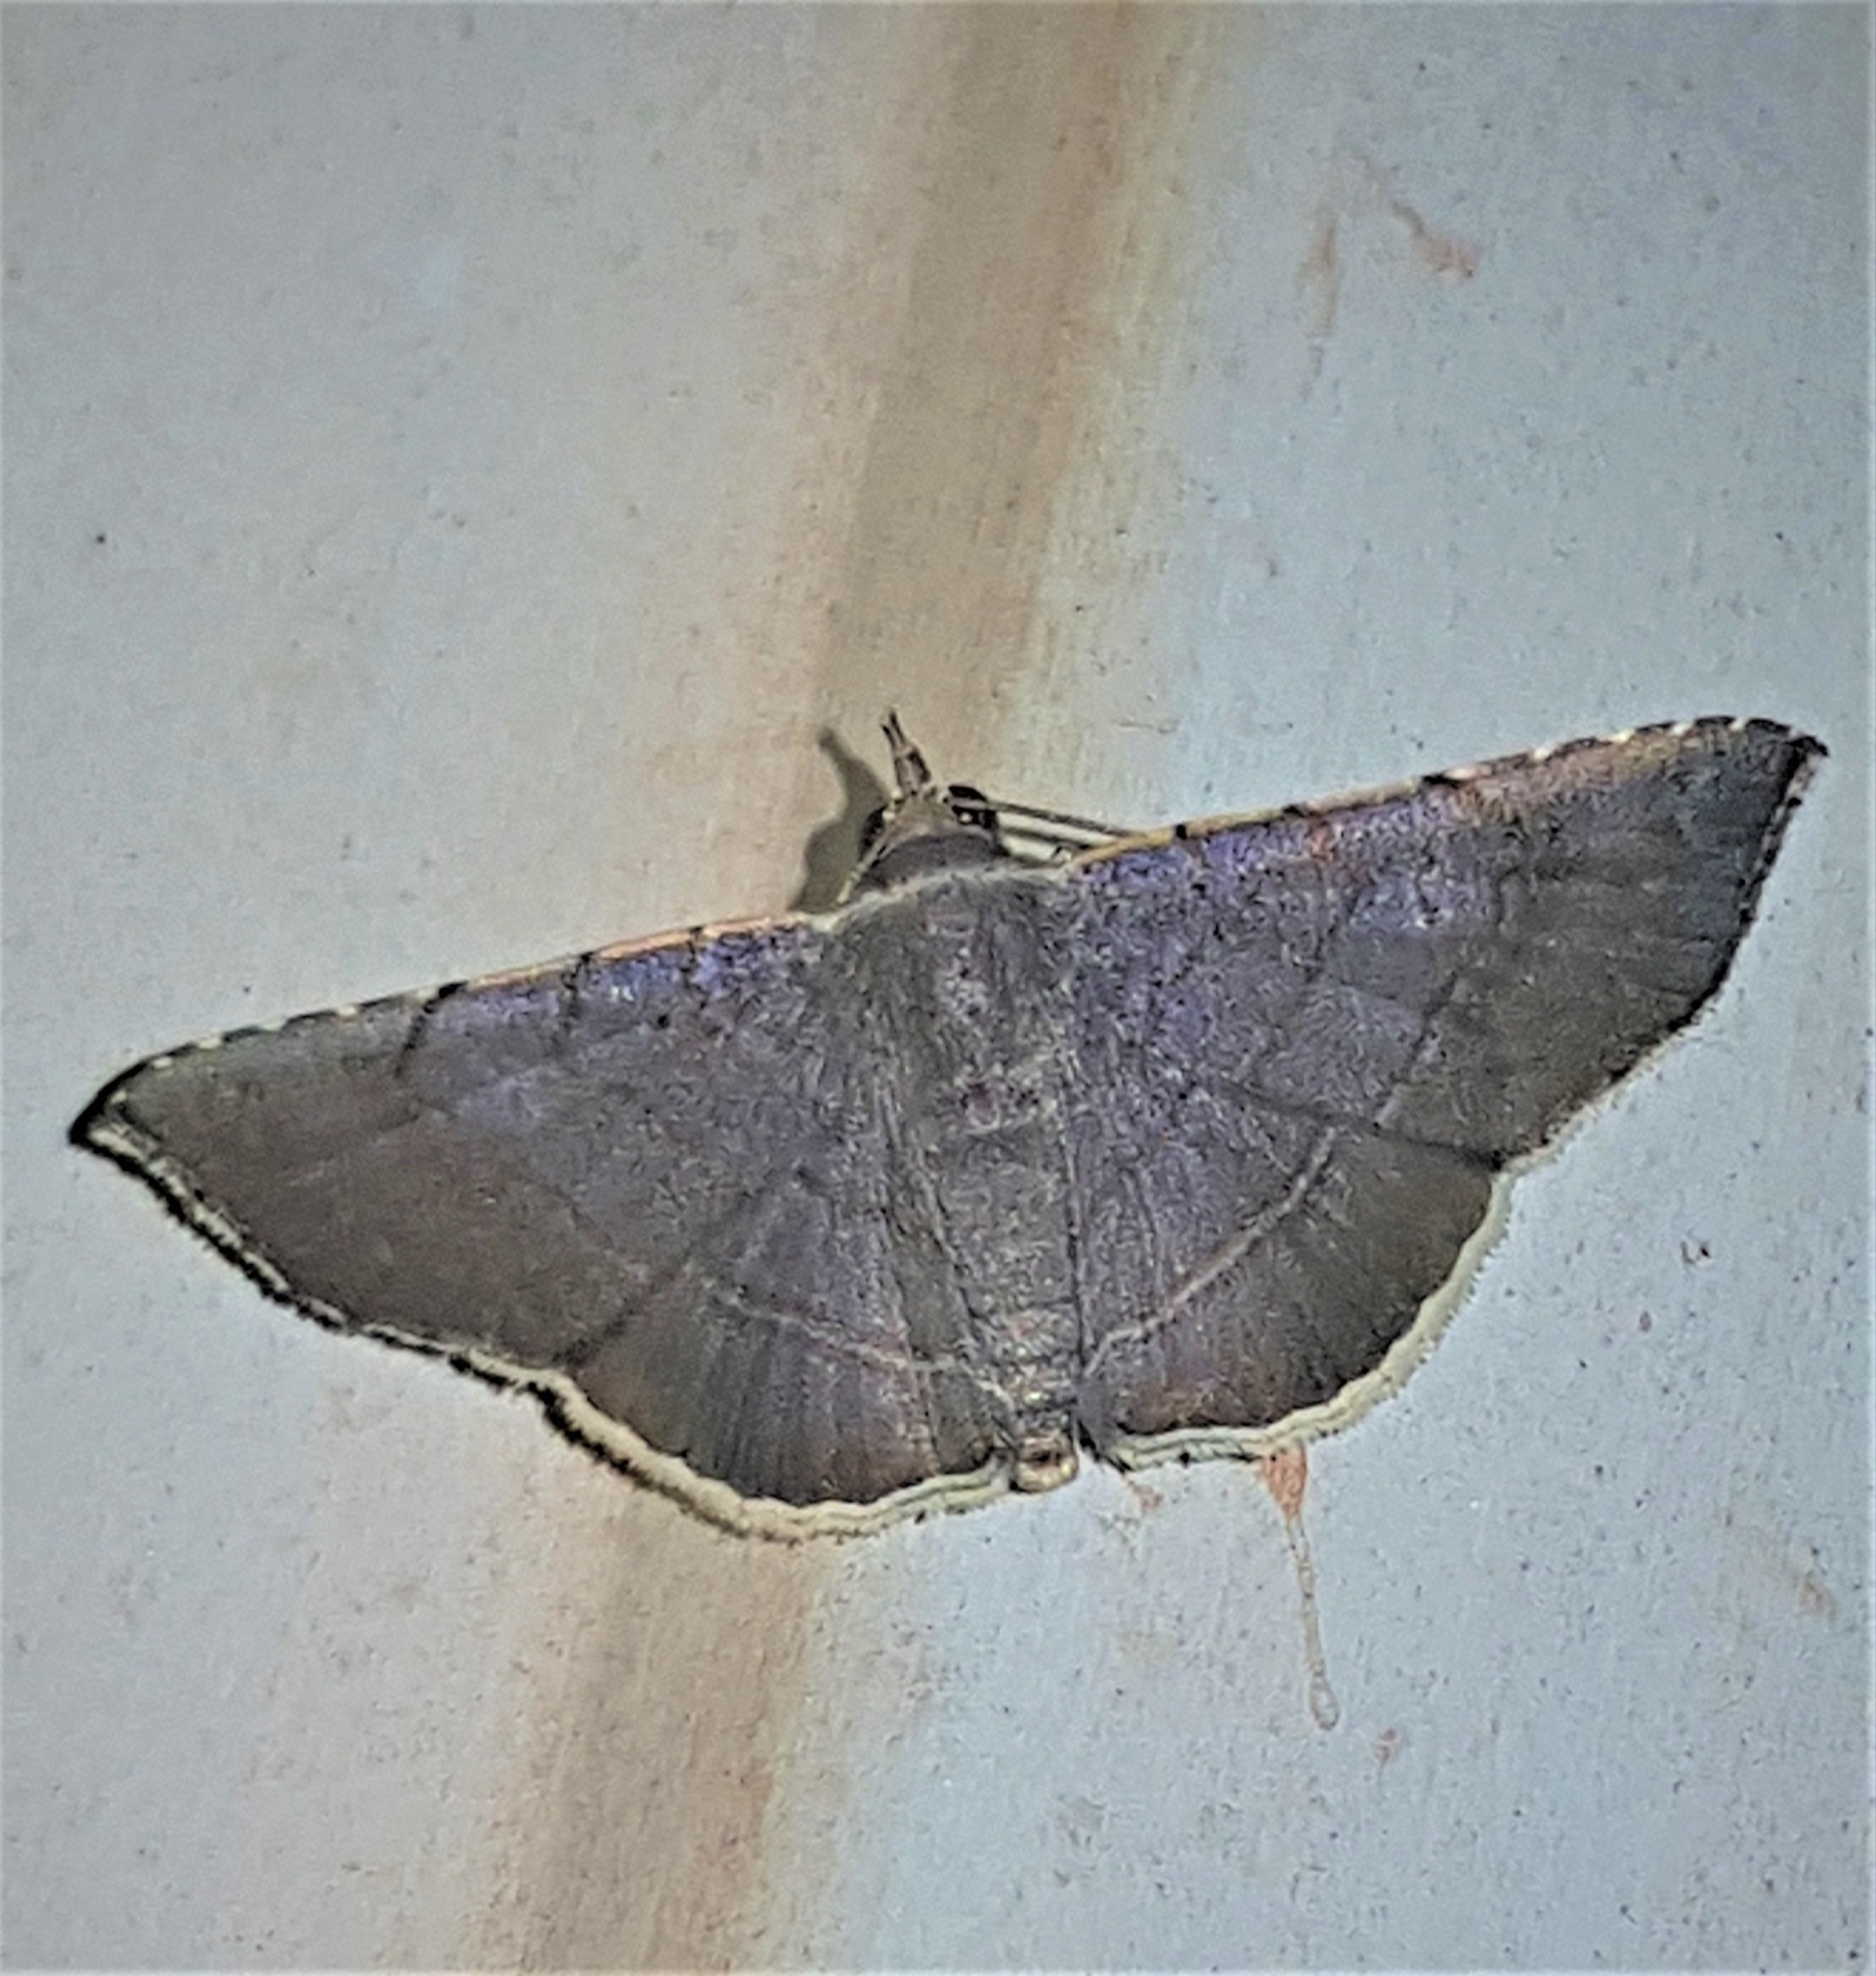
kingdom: Animalia
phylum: Arthropoda
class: Insecta
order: Lepidoptera
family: Erebidae
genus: Clapra
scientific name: Clapra asthenoides
